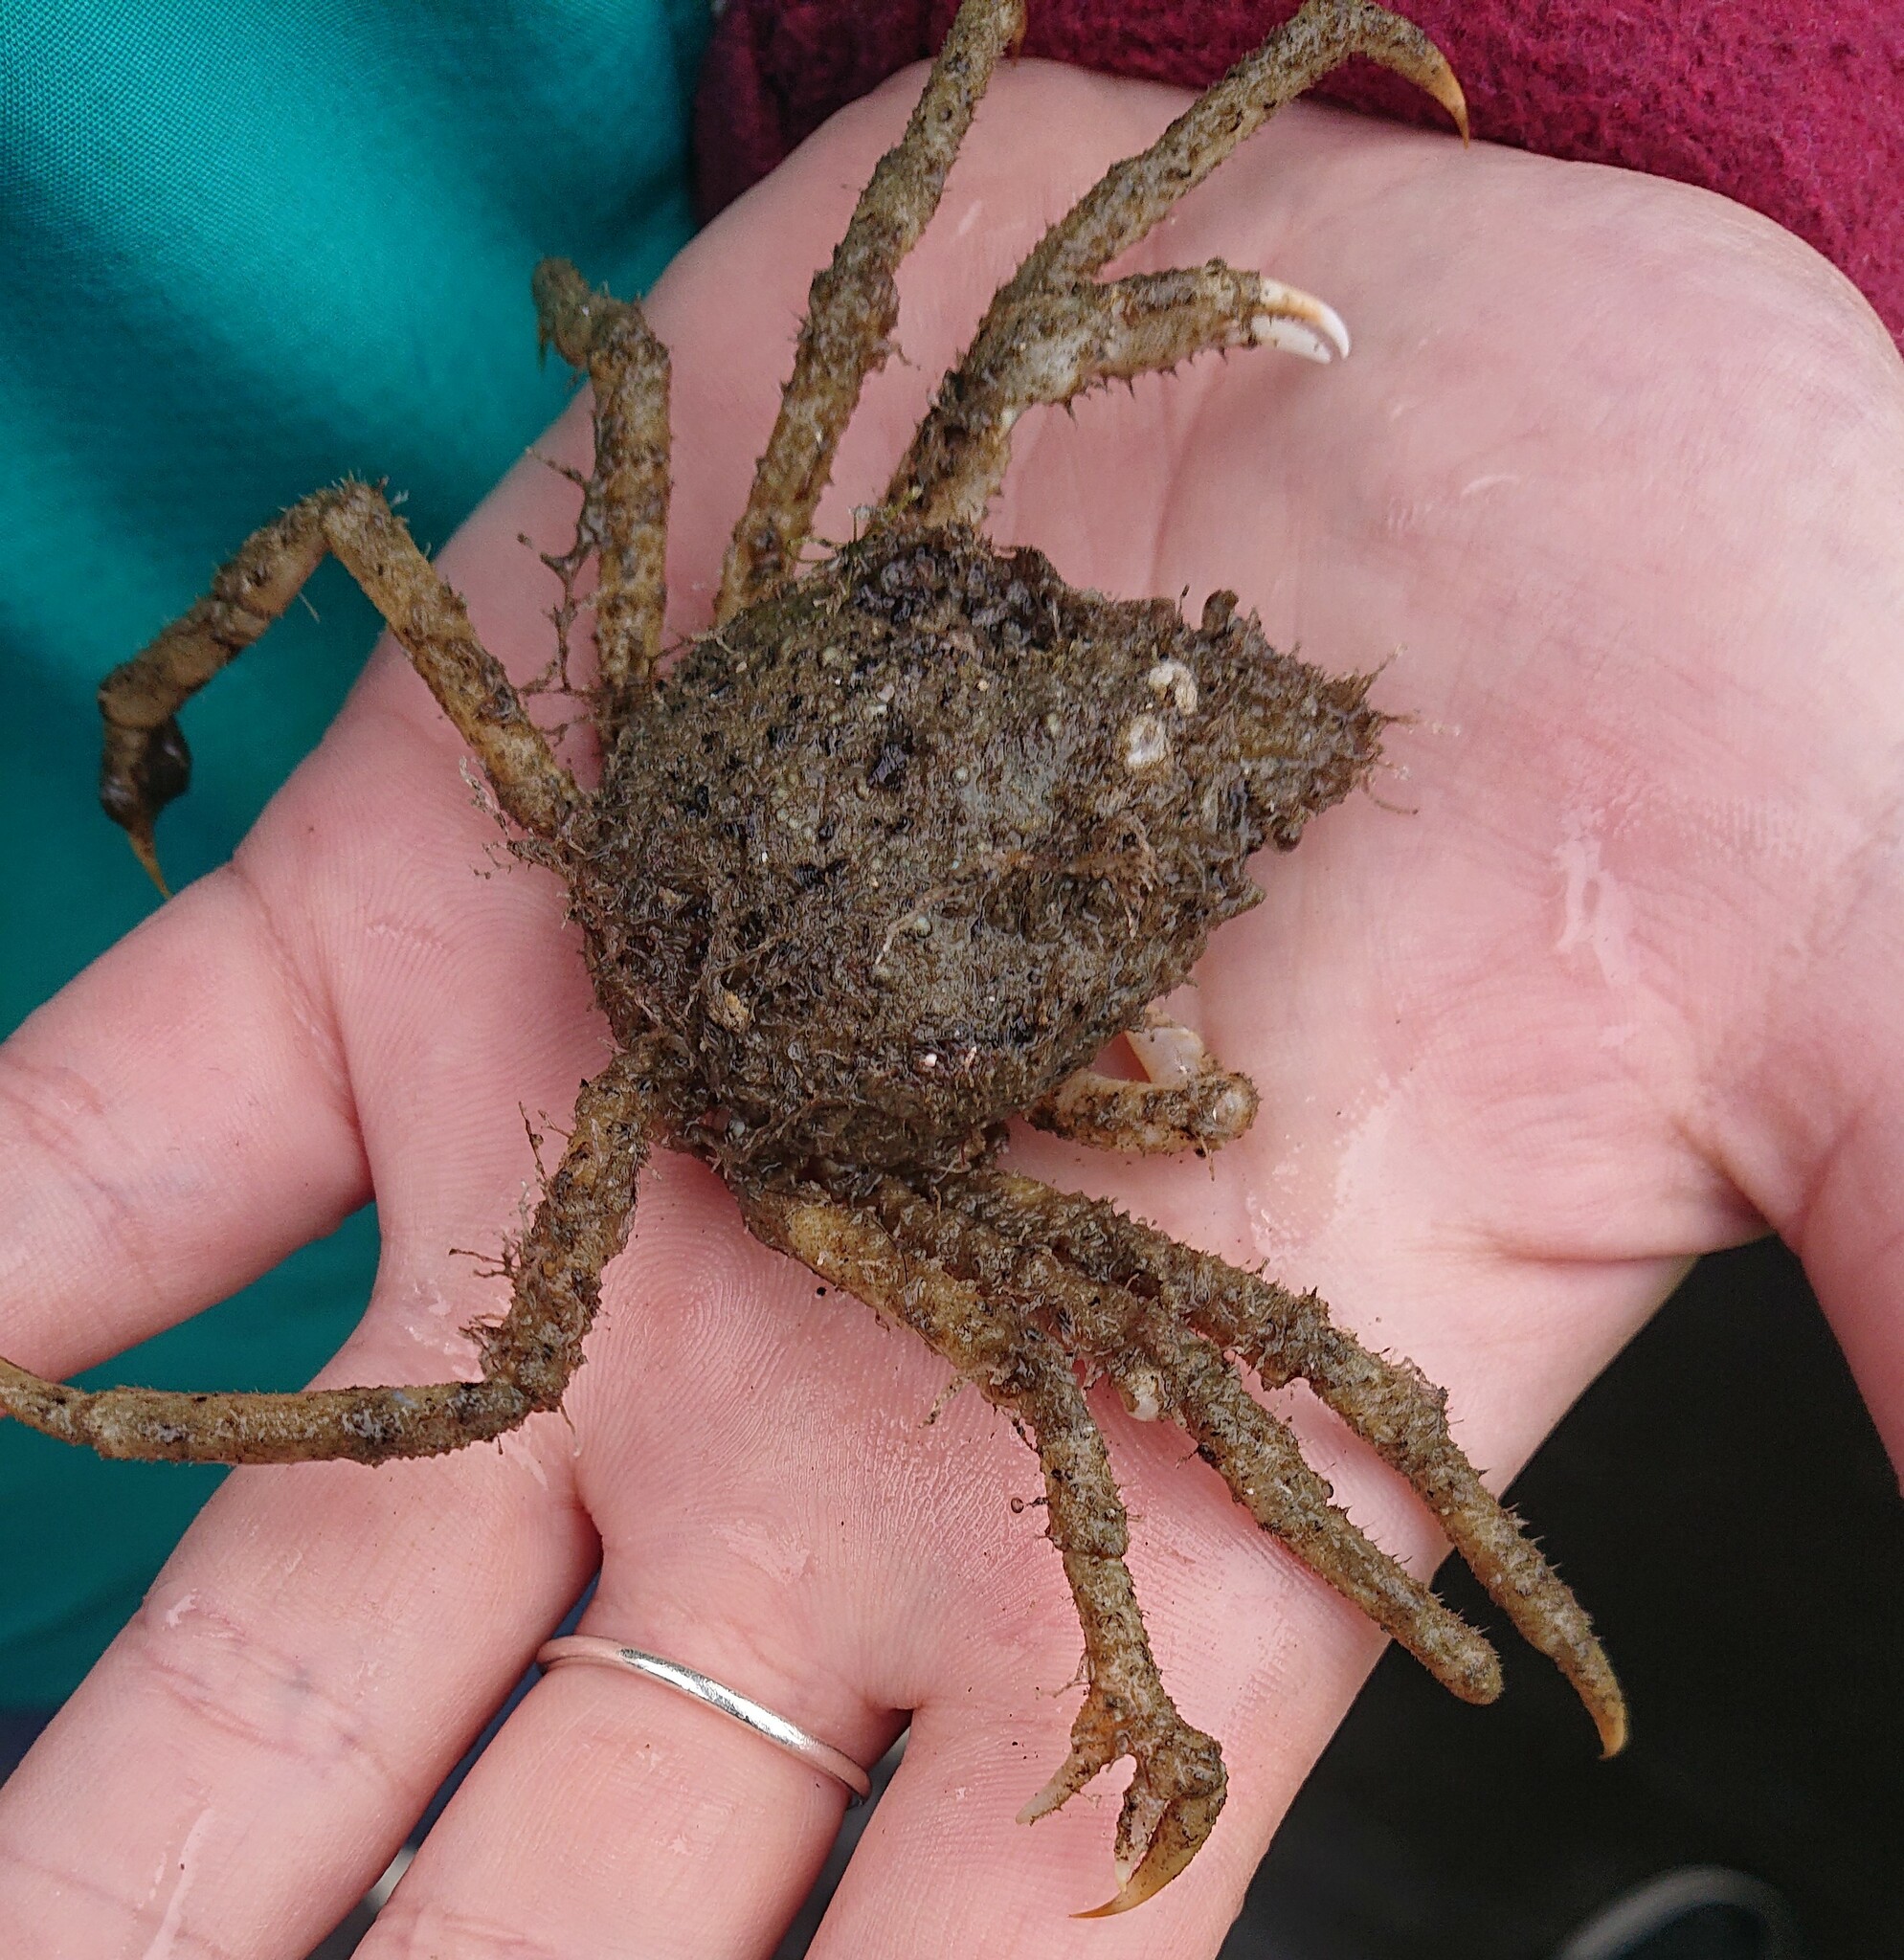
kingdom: Animalia
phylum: Arthropoda
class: Malacostraca
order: Decapoda
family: Oregoniidae
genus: Hyas
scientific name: Hyas araneus
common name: Great spider crab
